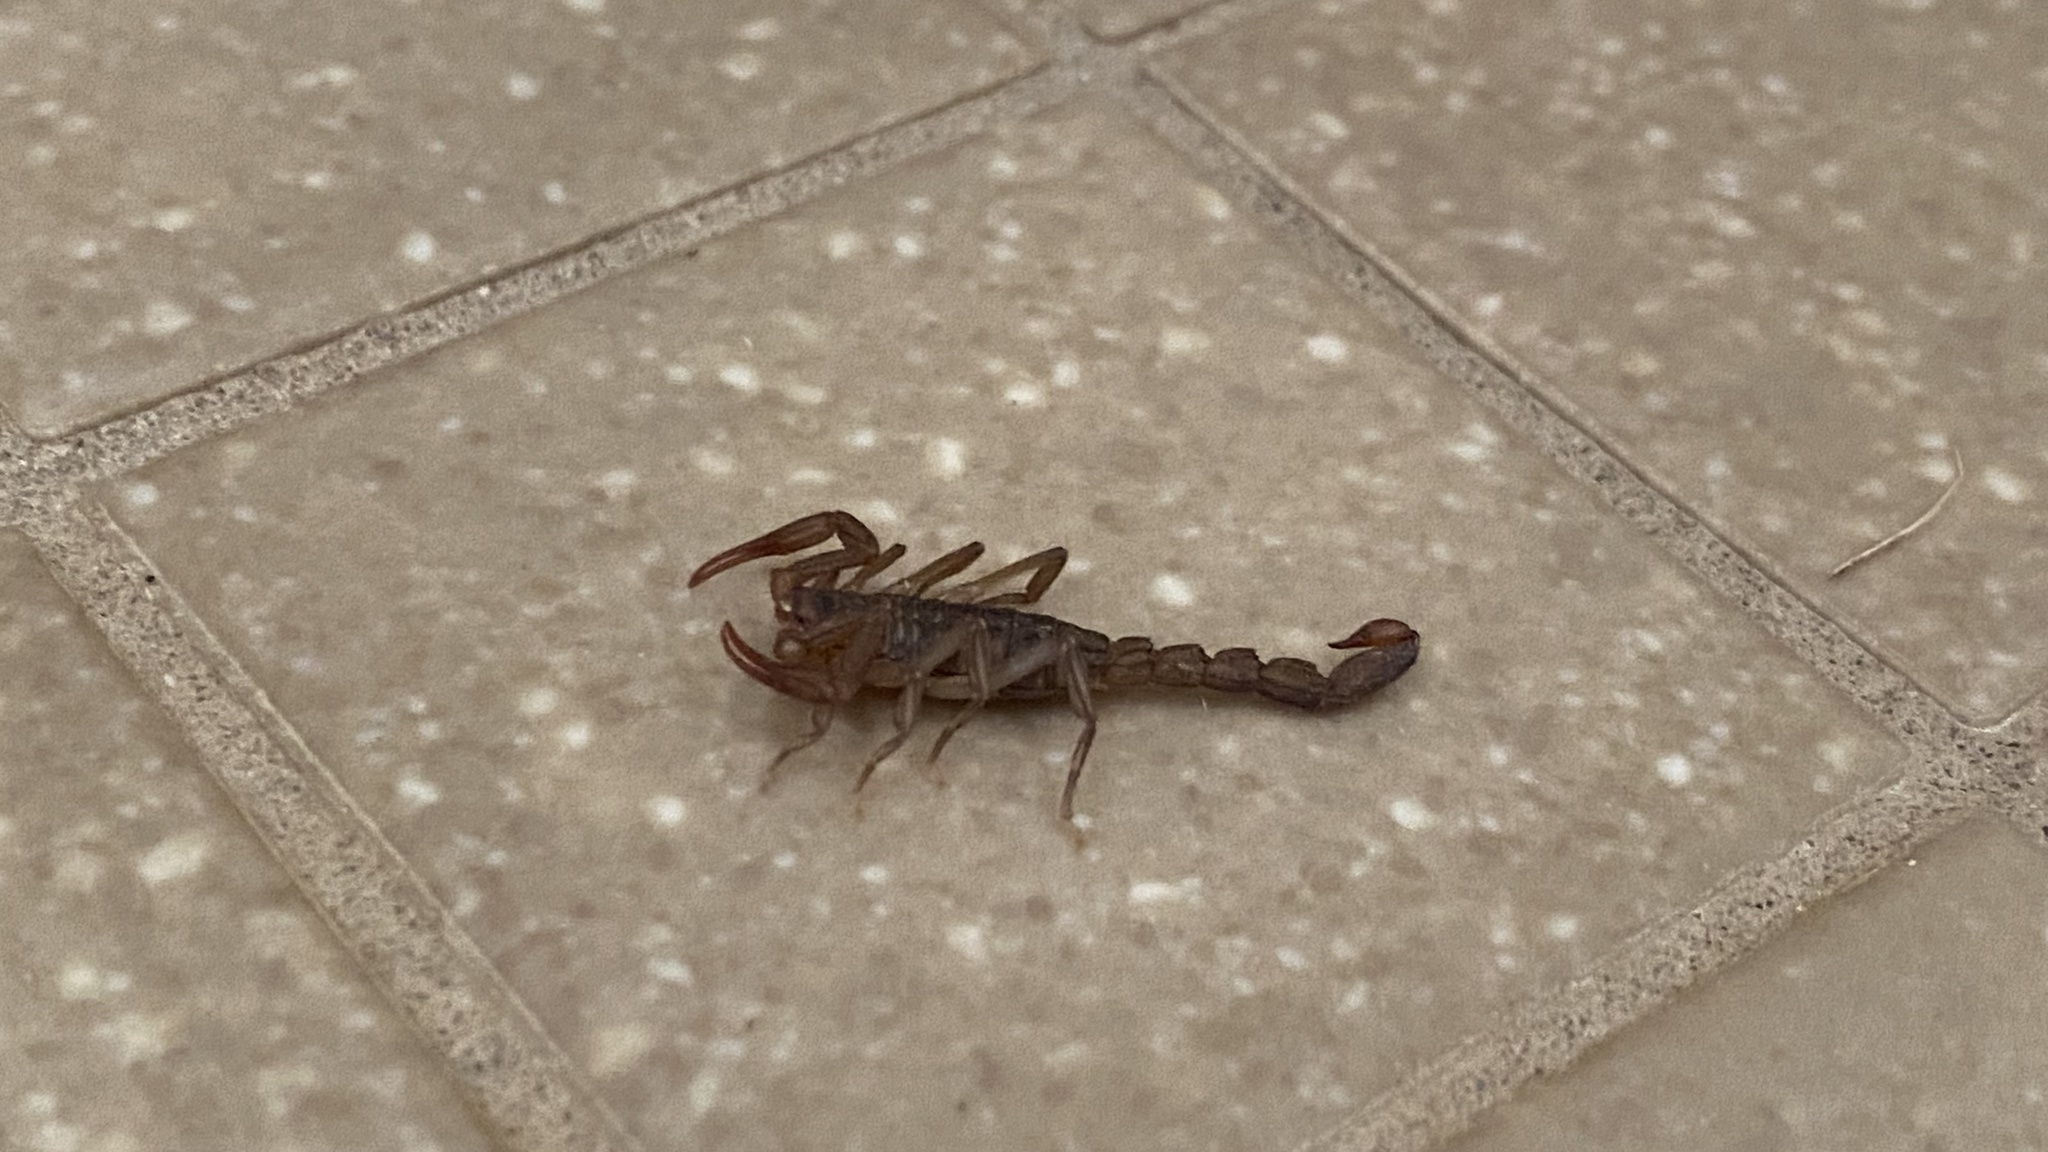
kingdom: Animalia
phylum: Arthropoda
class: Arachnida
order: Scorpiones
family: Vaejovidae
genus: Serradigitus
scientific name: Serradigitus gertschi
